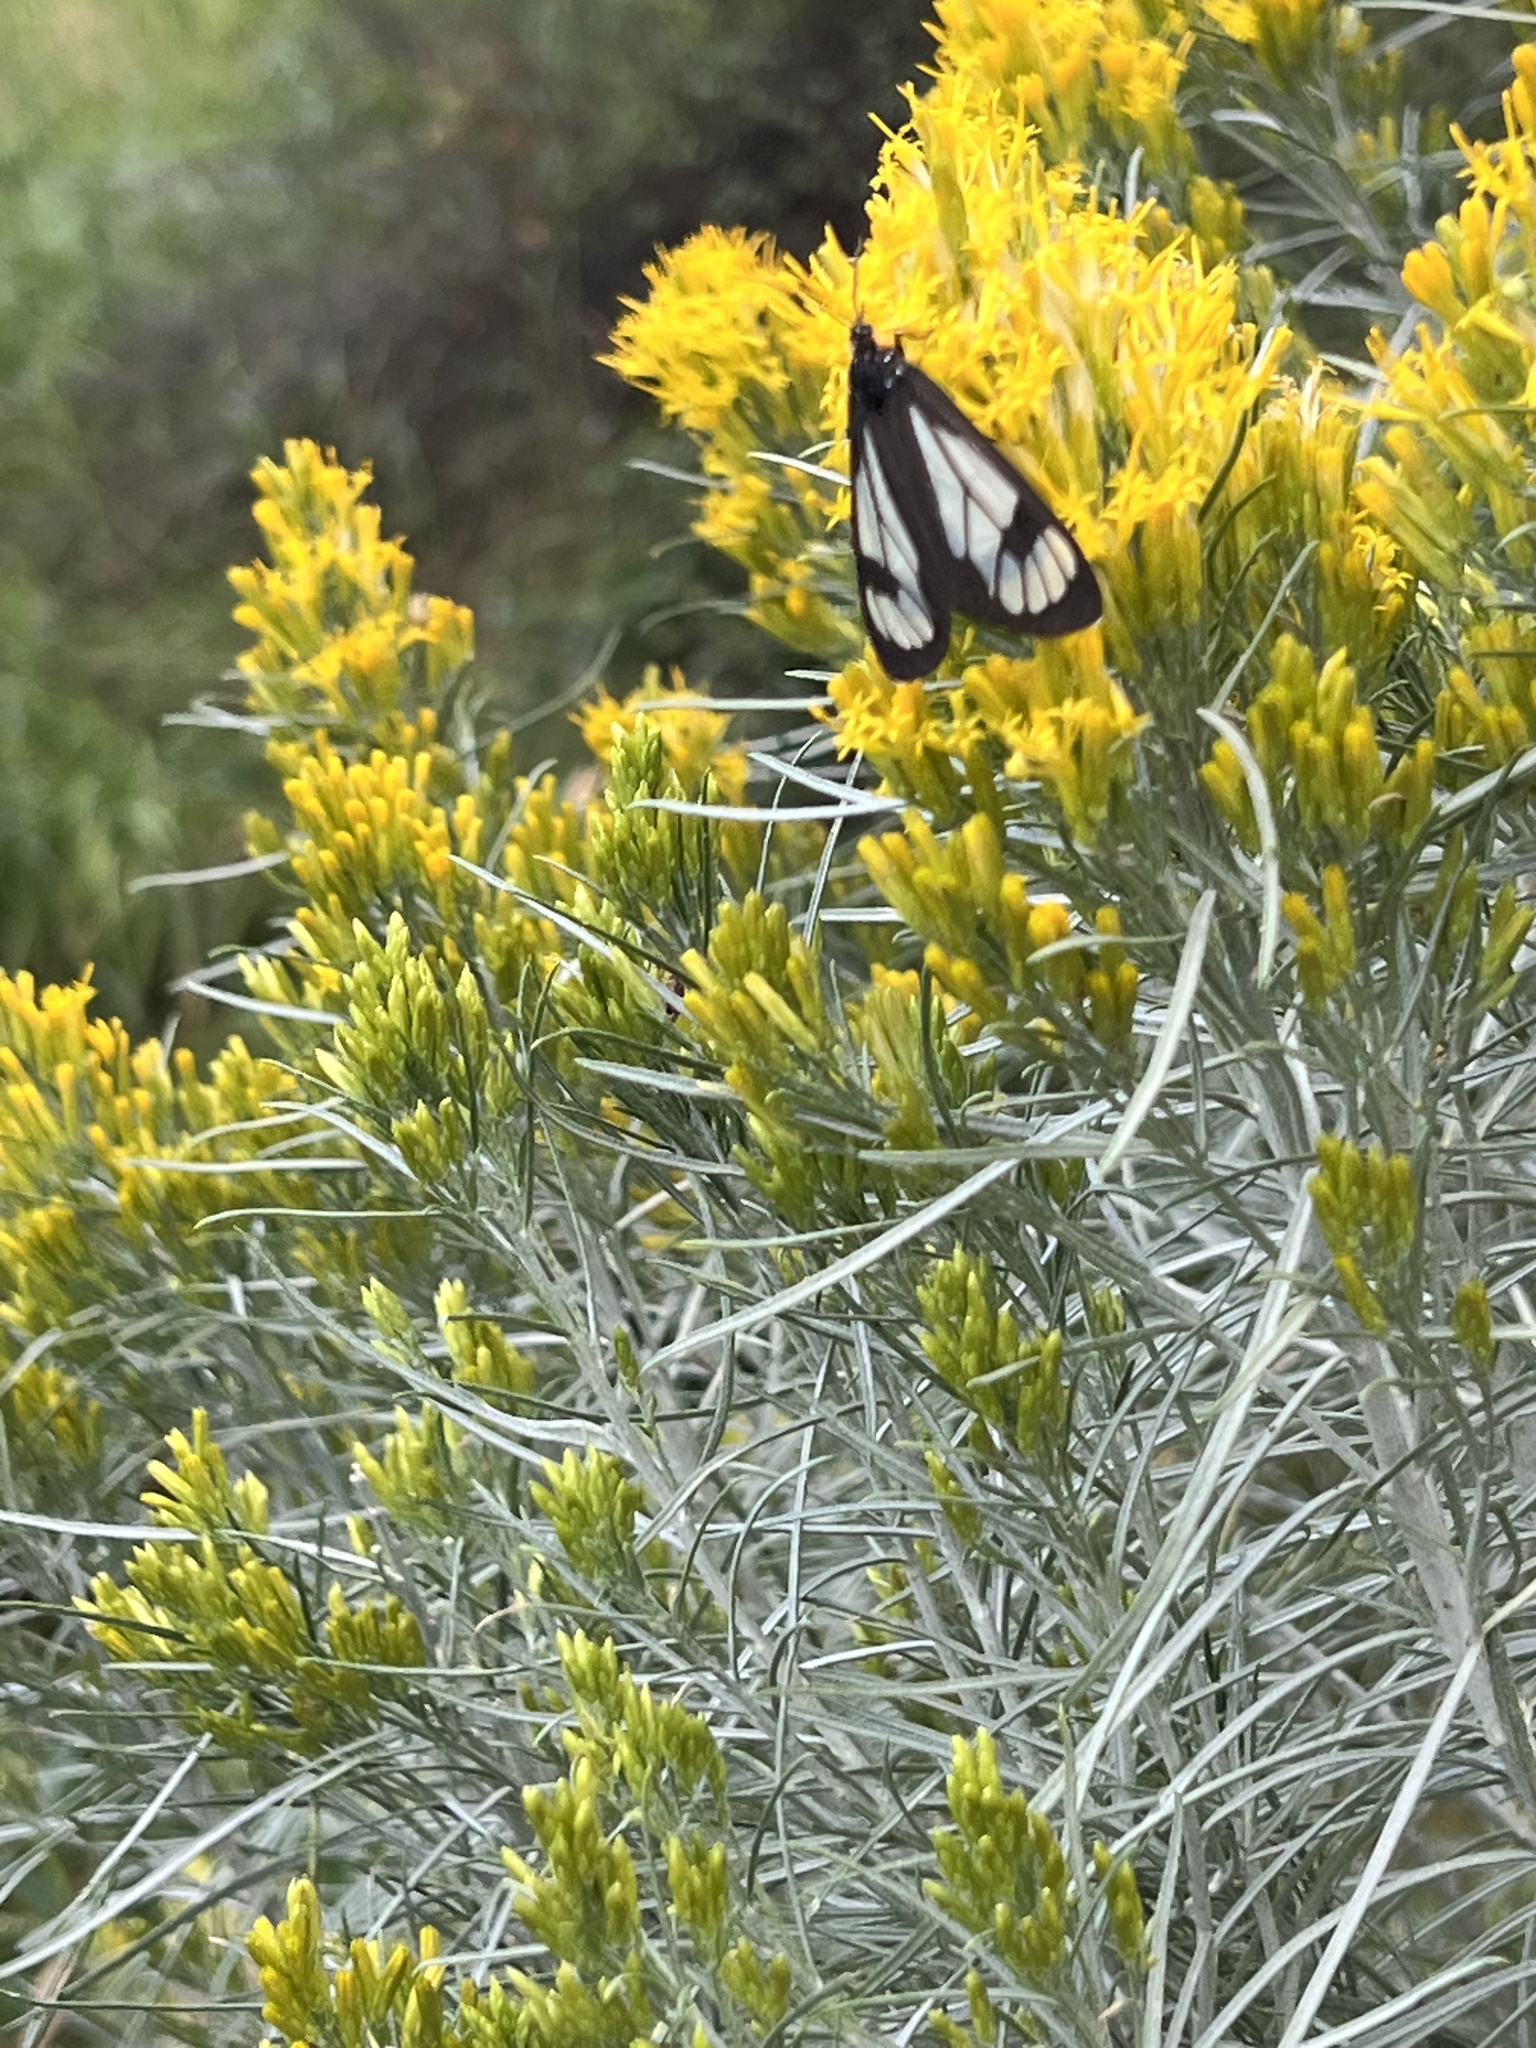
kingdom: Animalia
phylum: Arthropoda
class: Insecta
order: Lepidoptera
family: Erebidae
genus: Gnophaela
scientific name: Gnophaela vermiculata
